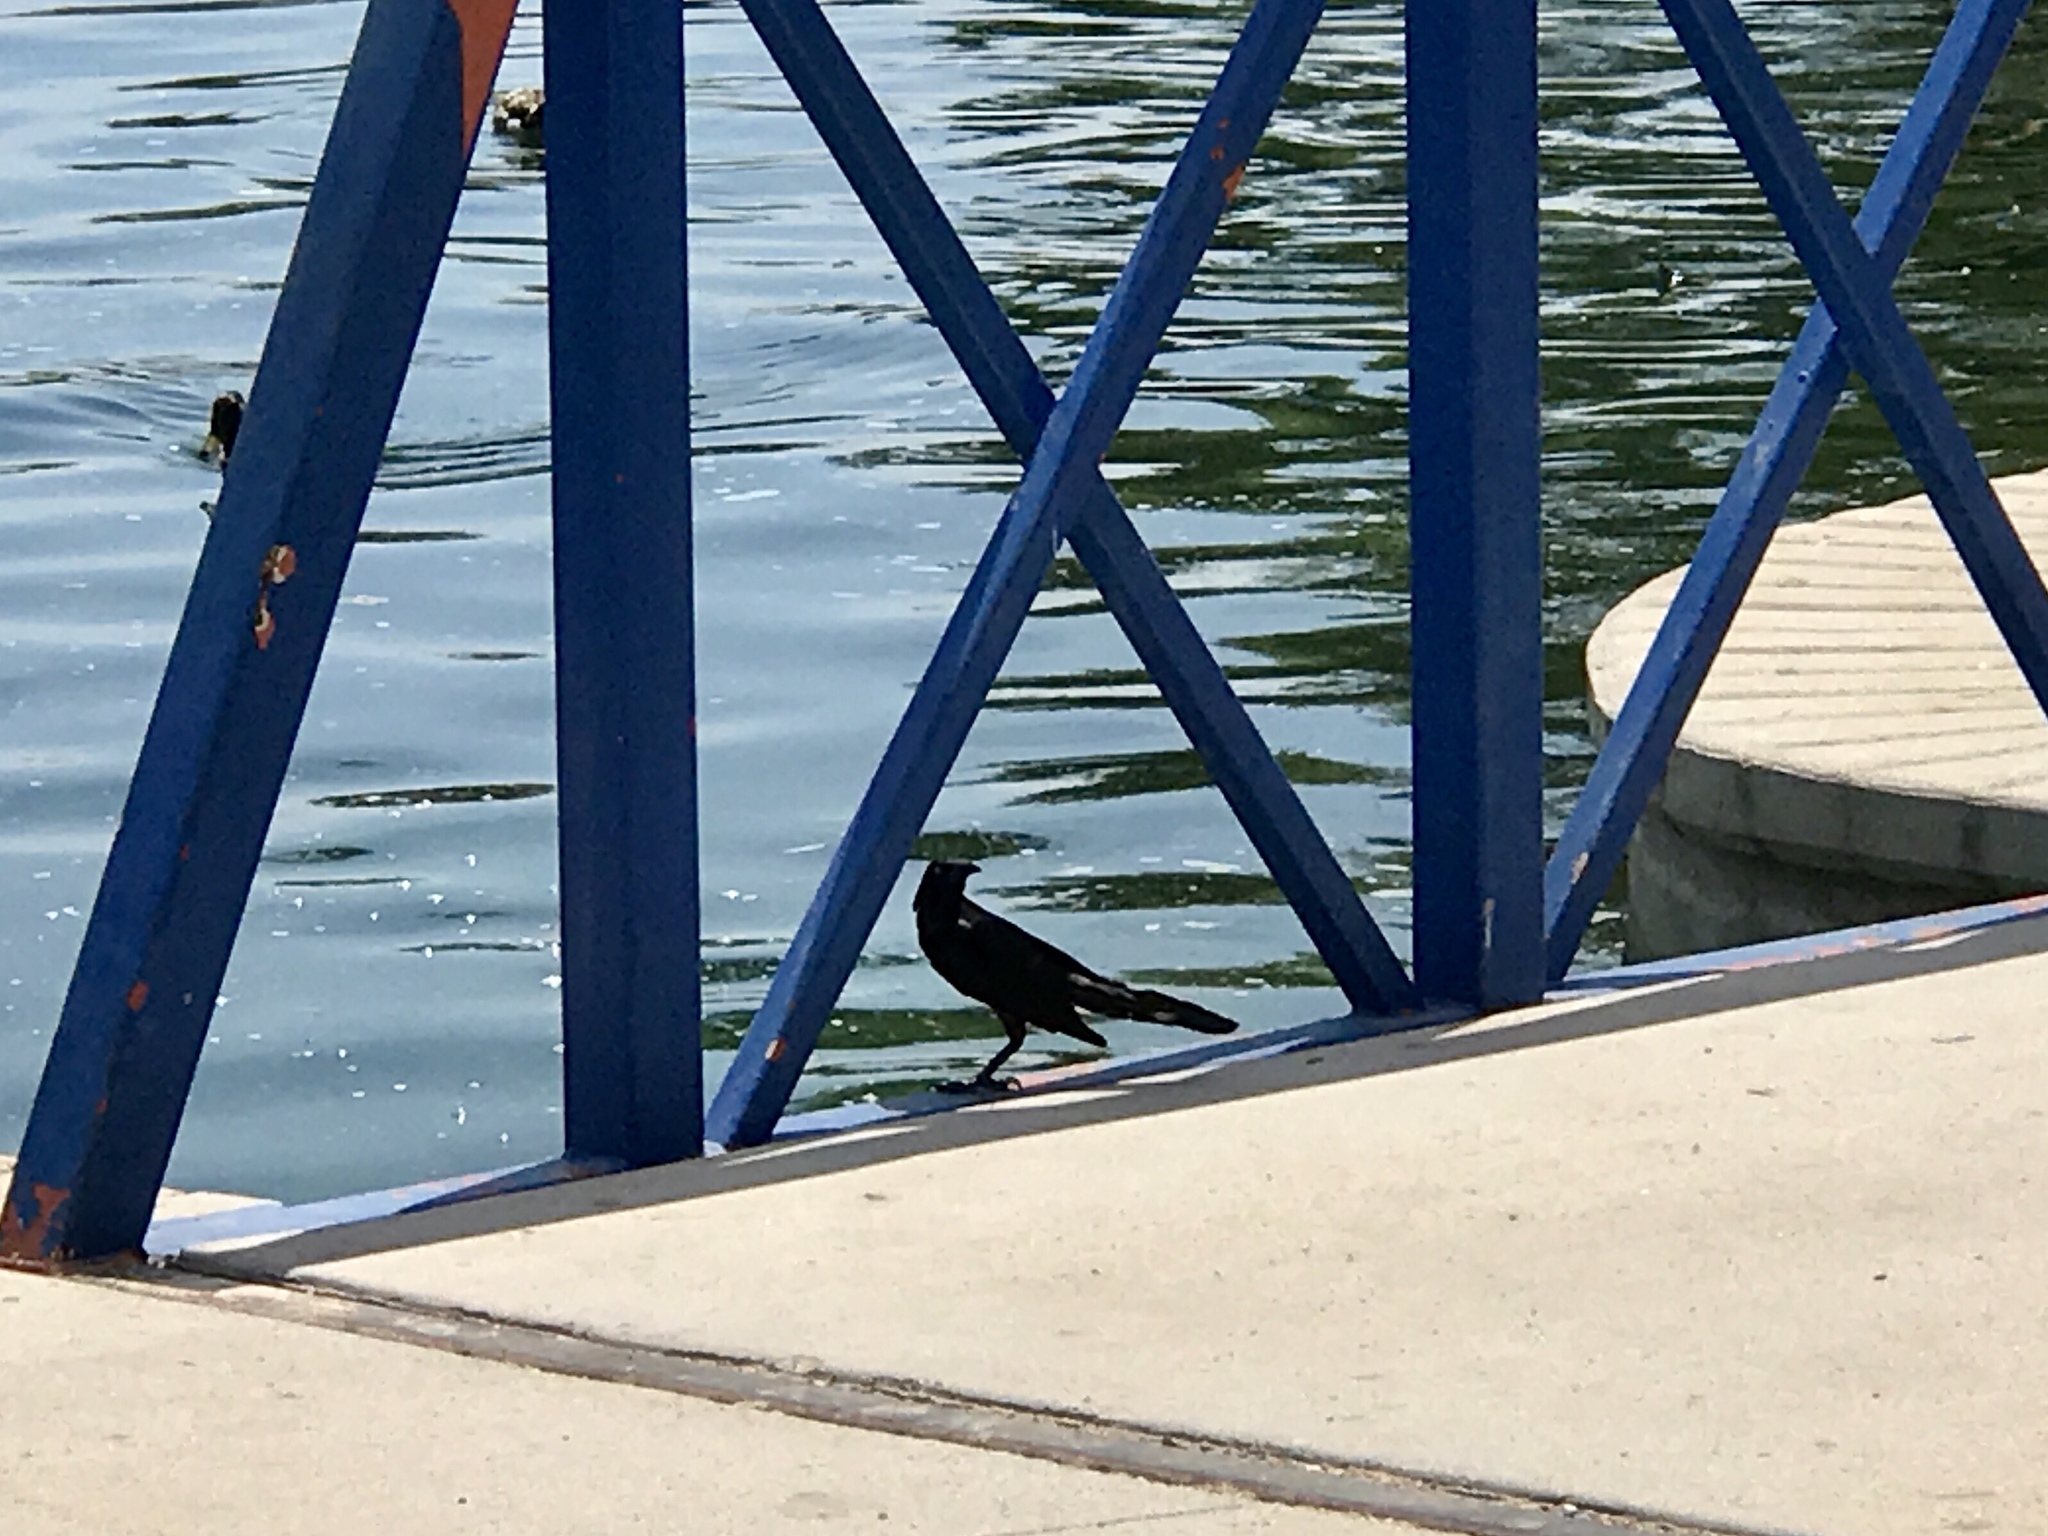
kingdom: Animalia
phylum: Chordata
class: Aves
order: Passeriformes
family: Icteridae
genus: Quiscalus
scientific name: Quiscalus mexicanus
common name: Great-tailed grackle
